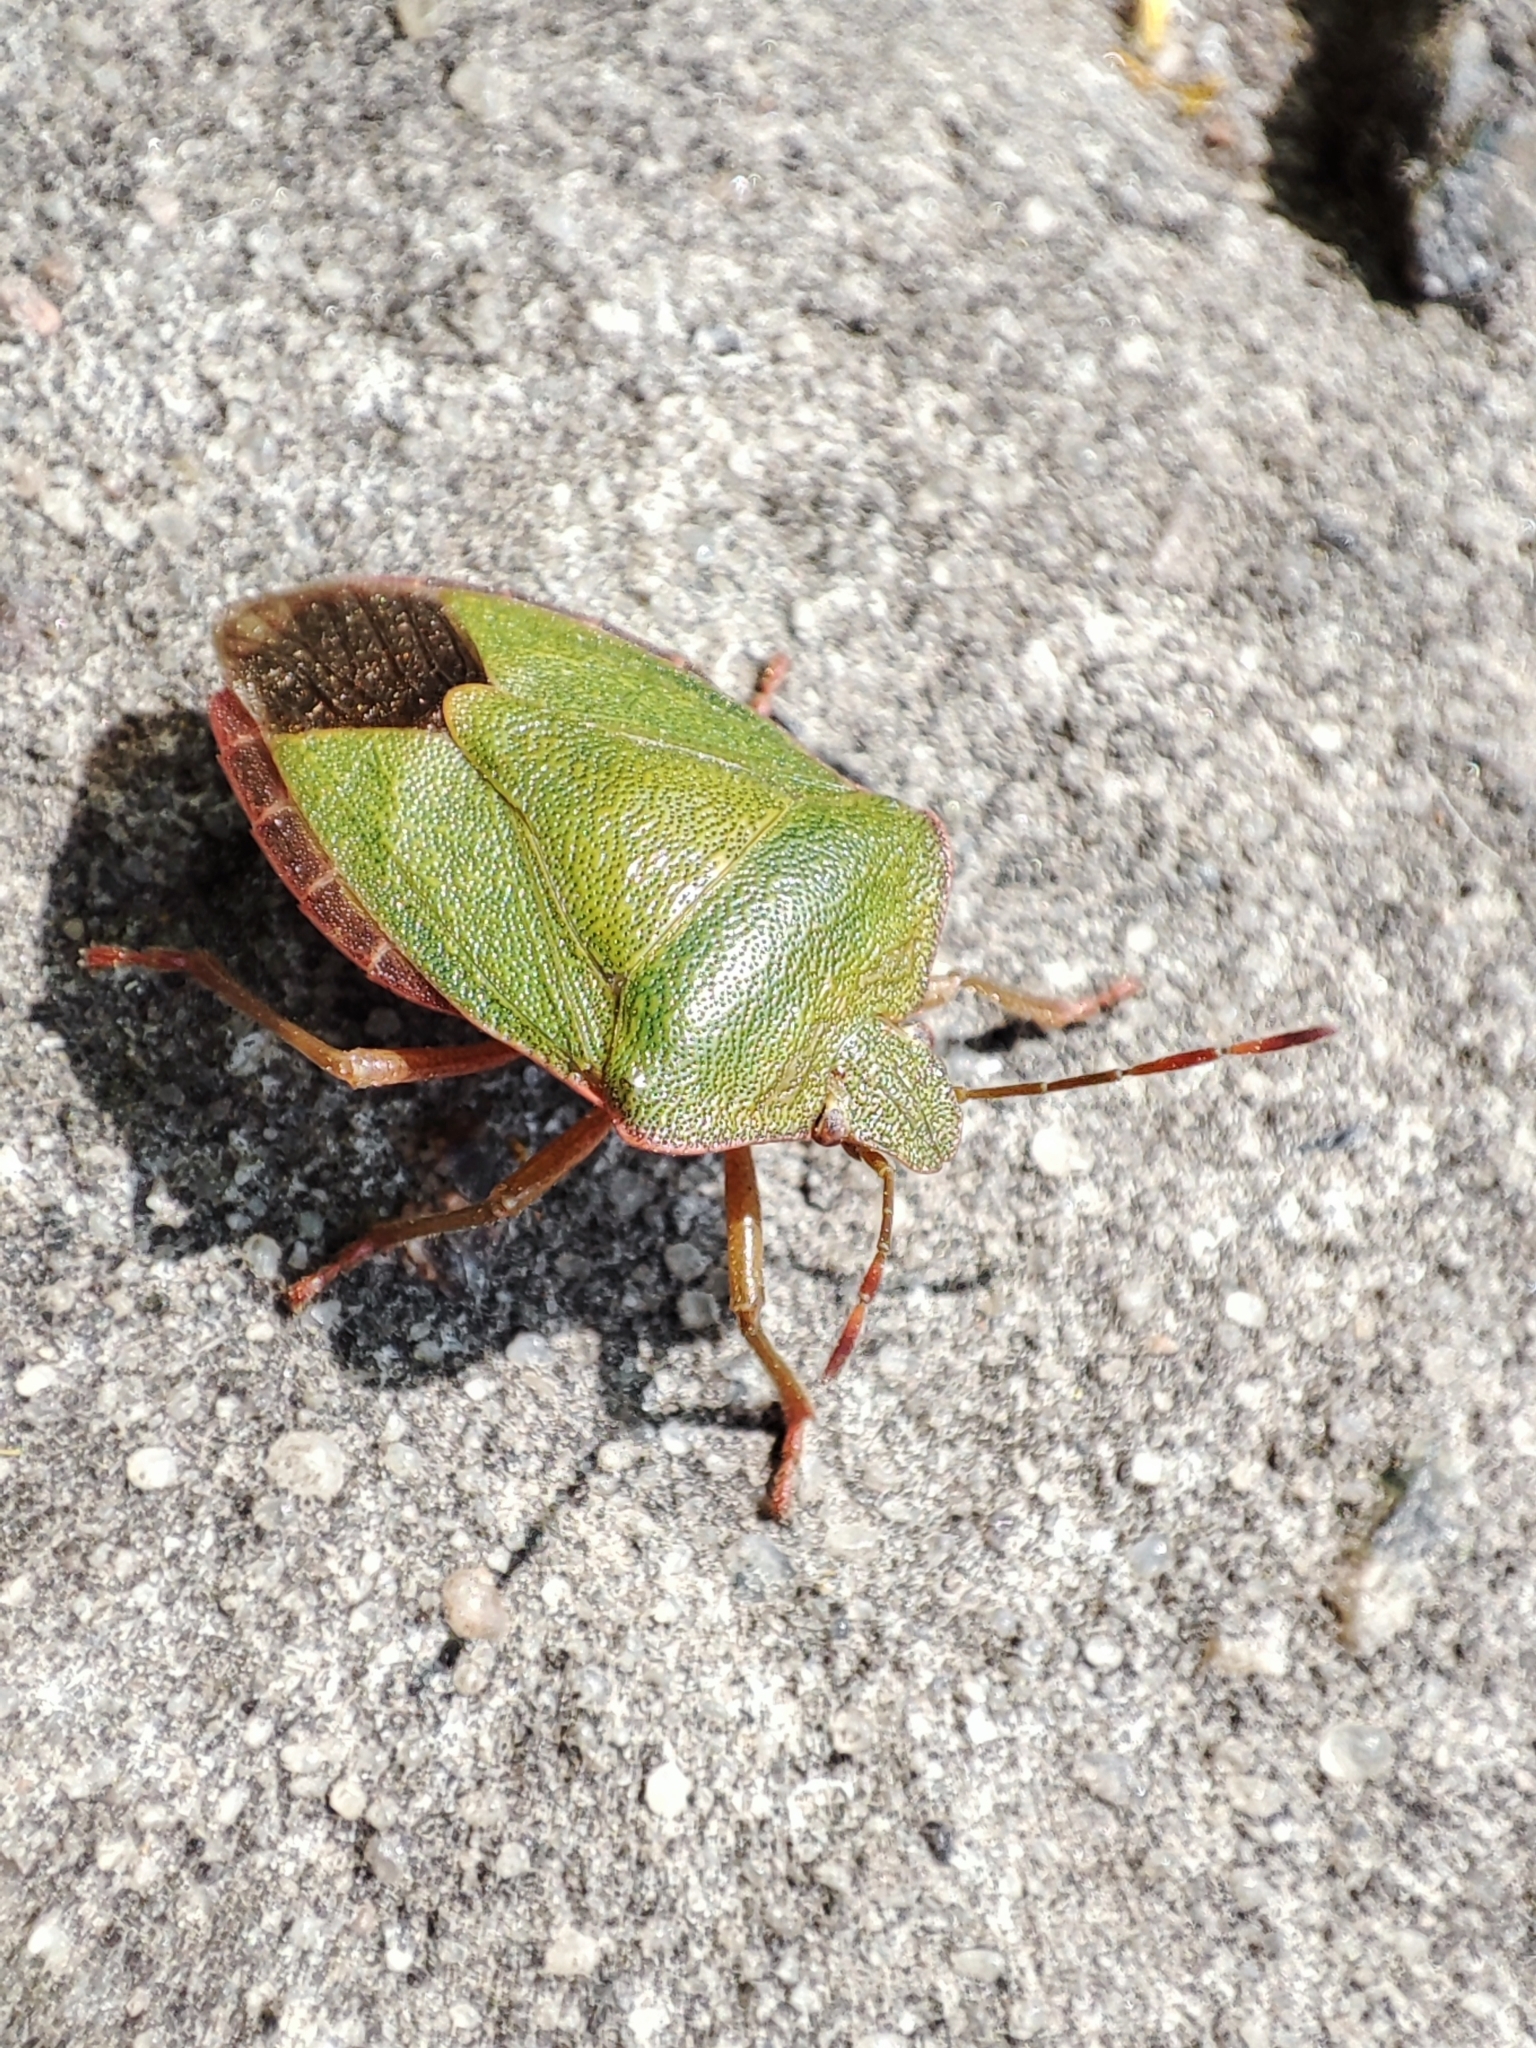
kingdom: Animalia
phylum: Arthropoda
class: Insecta
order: Hemiptera
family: Pentatomidae
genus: Palomena
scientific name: Palomena prasina
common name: Green shieldbug
